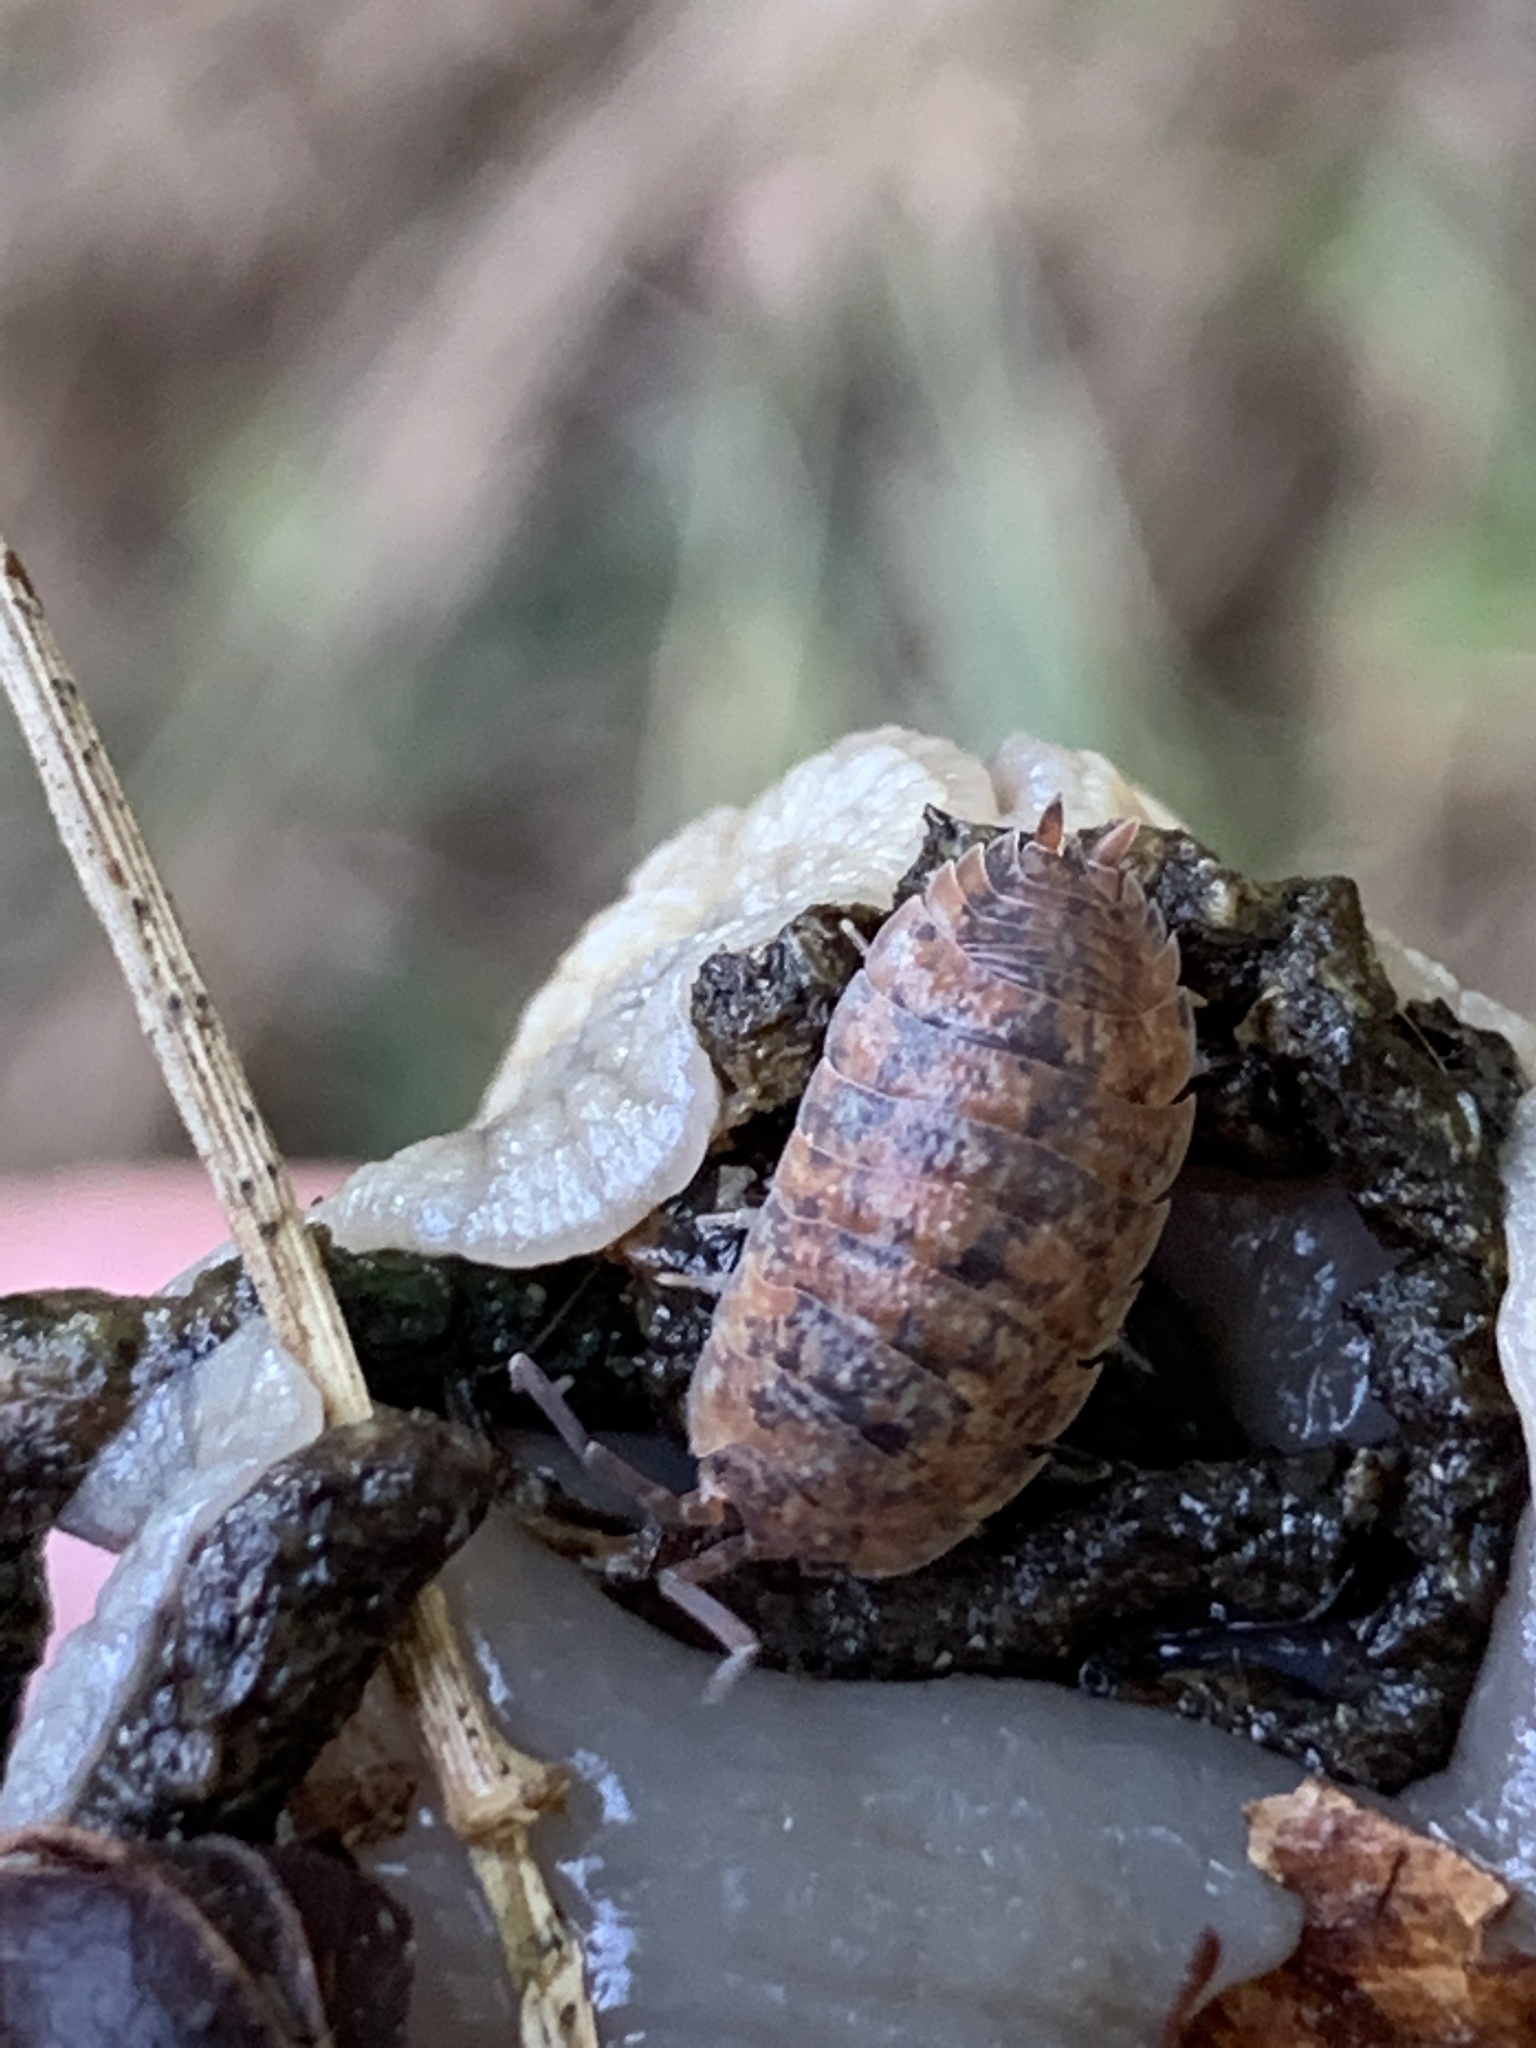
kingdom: Animalia
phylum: Arthropoda
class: Malacostraca
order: Isopoda
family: Porcellionidae
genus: Porcellio
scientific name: Porcellio scaber
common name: Common rough woodlouse
